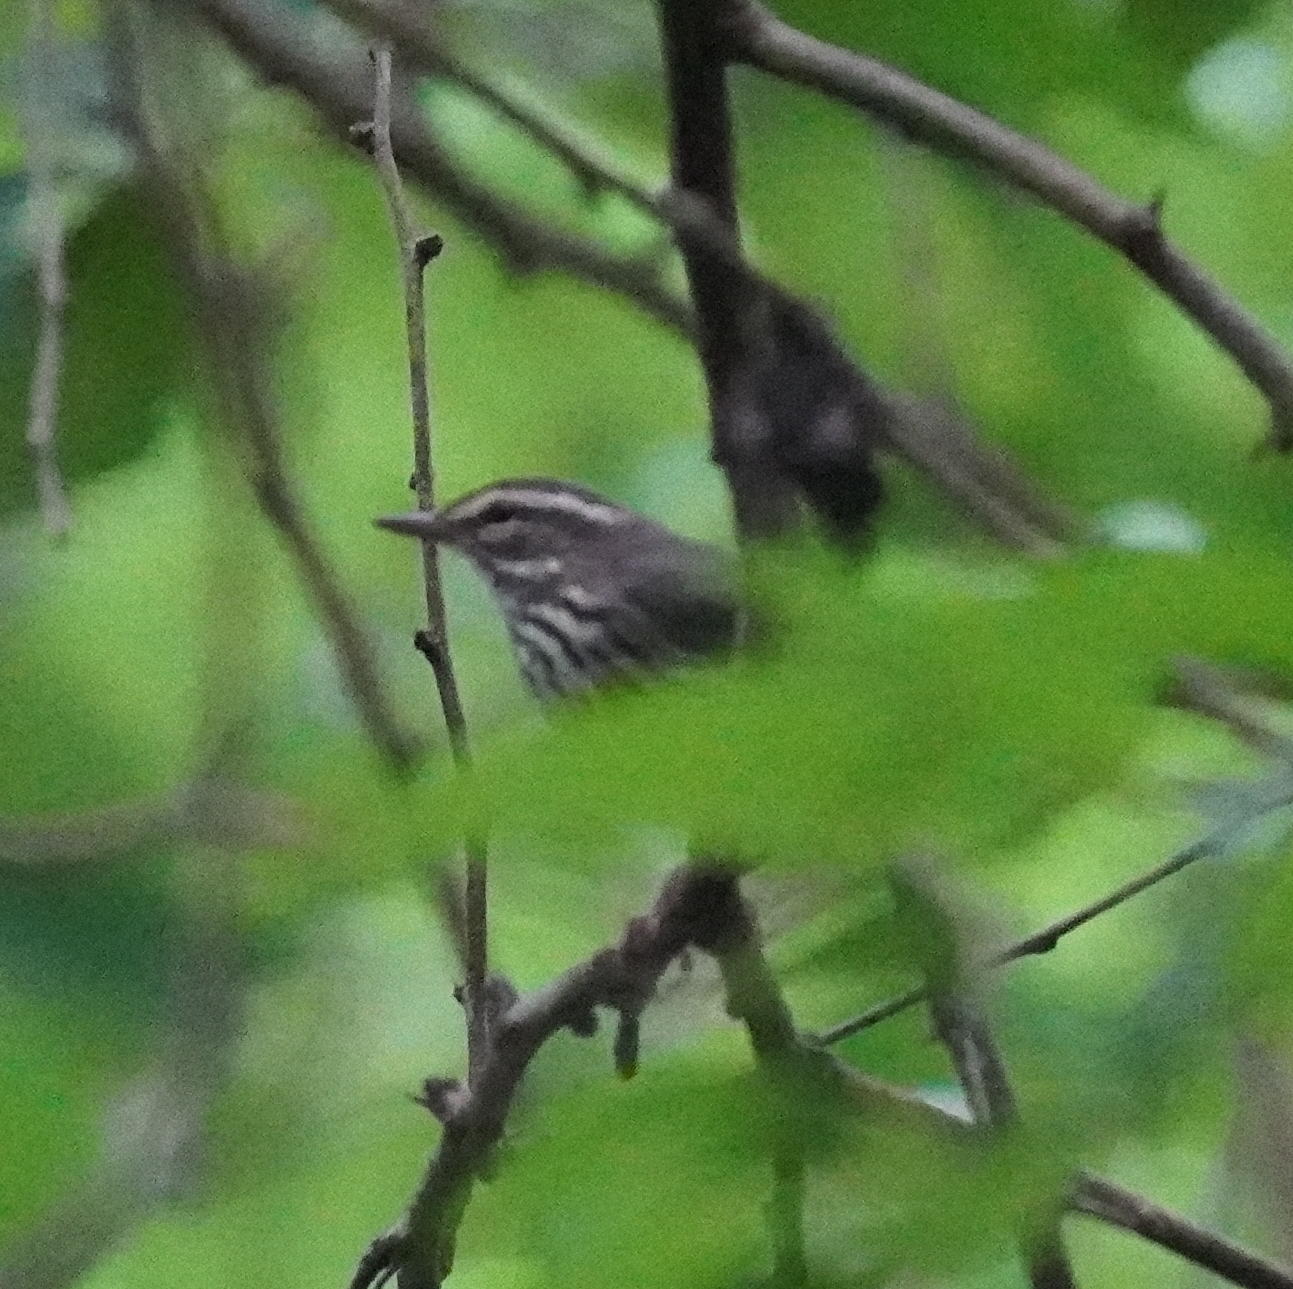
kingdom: Animalia
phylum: Chordata
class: Aves
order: Passeriformes
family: Parulidae
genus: Parkesia
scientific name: Parkesia noveboracensis
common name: Northern waterthrush
